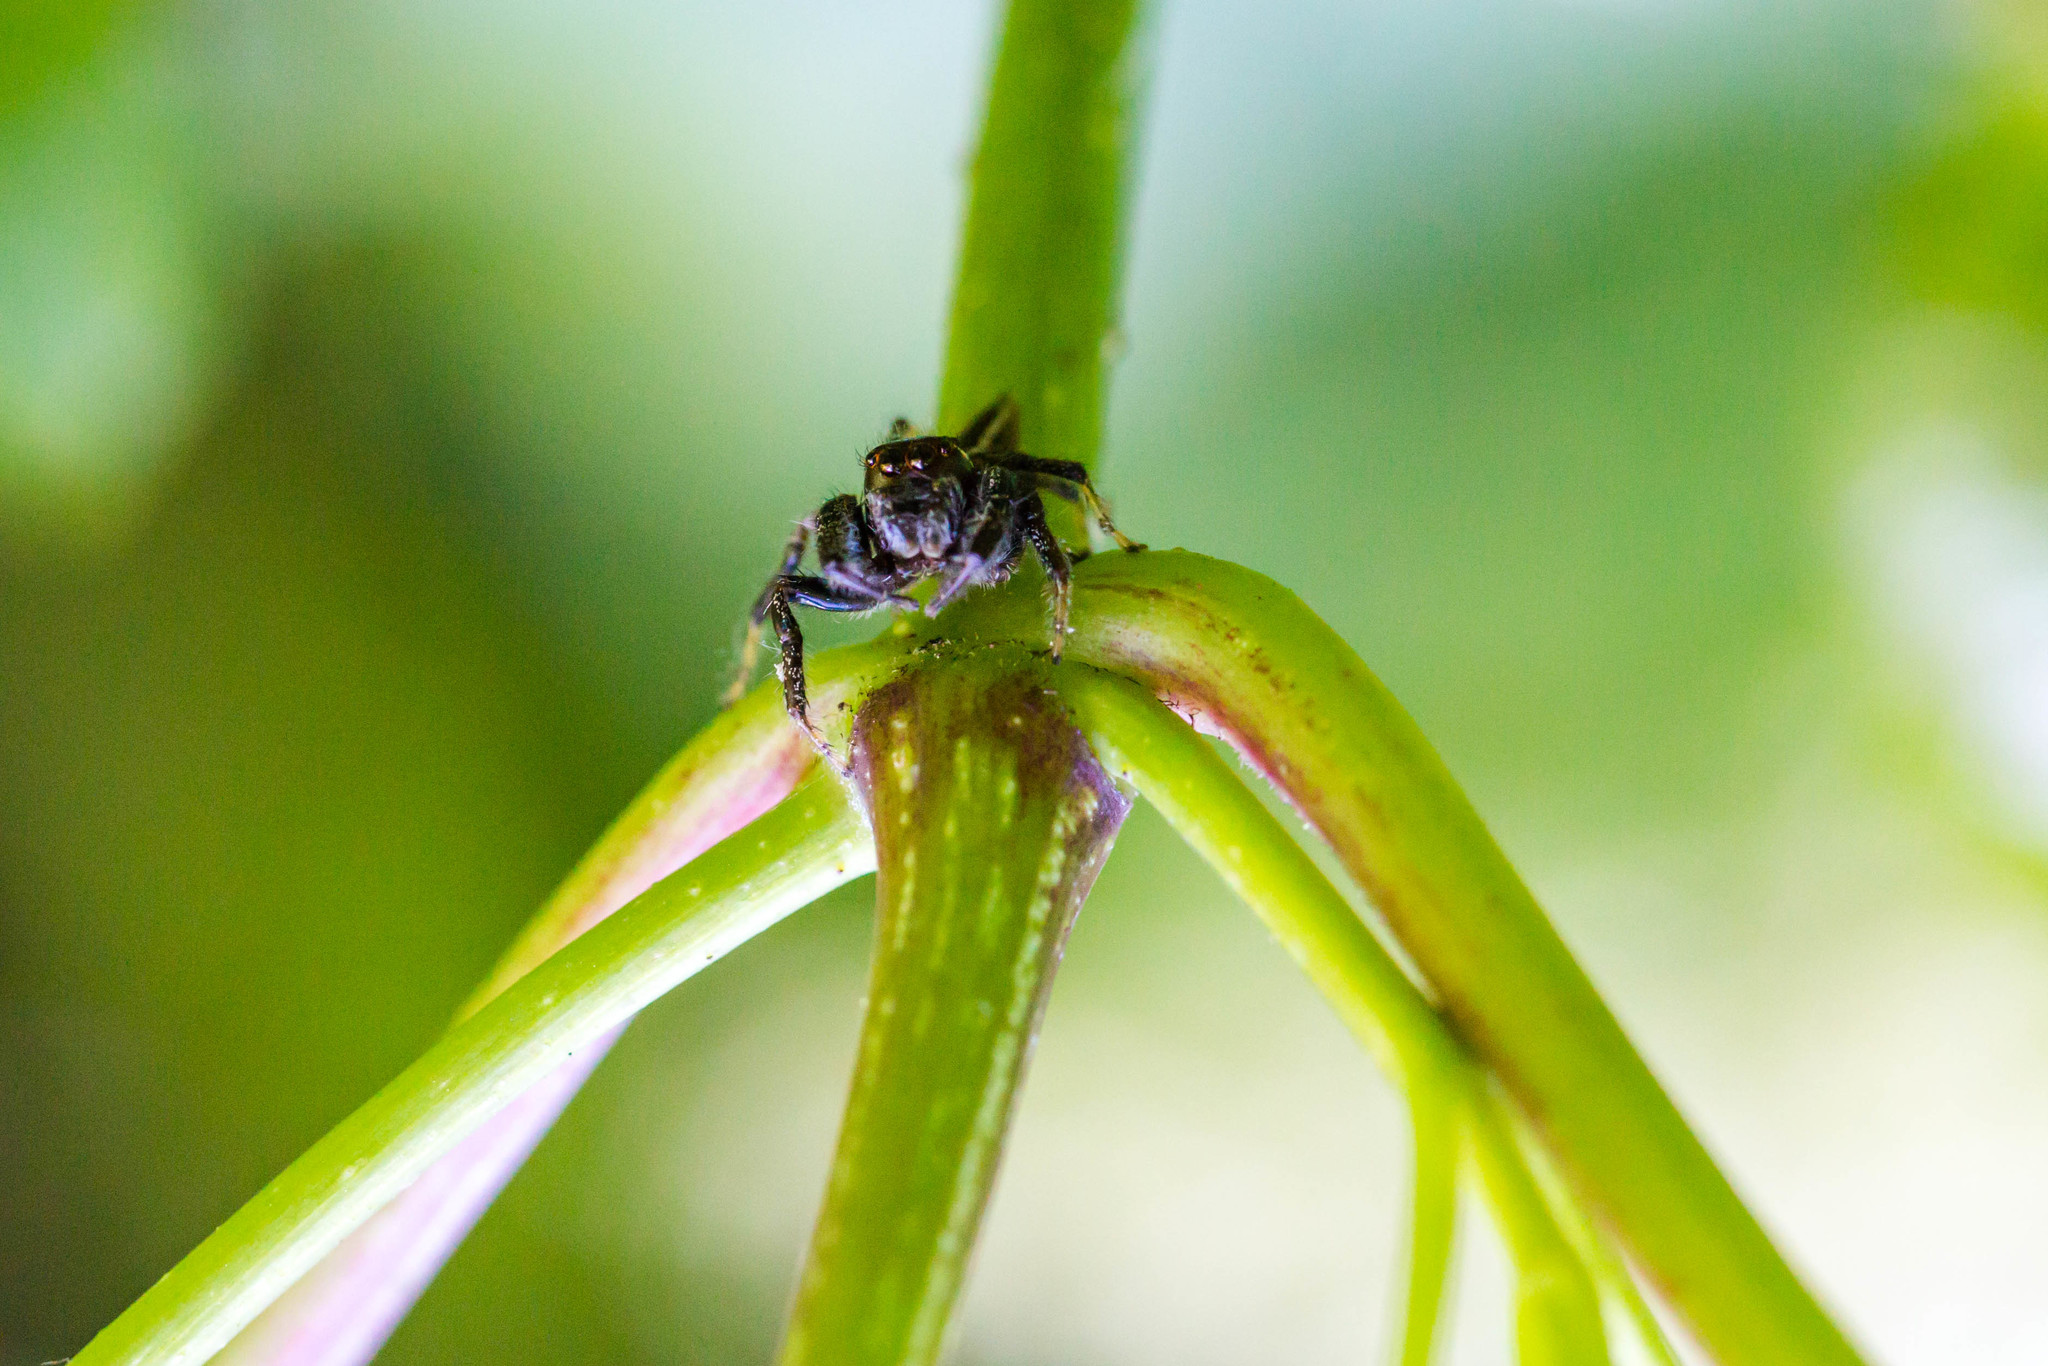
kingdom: Animalia
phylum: Arthropoda
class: Arachnida
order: Araneae
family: Salticidae
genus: Colonus
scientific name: Colonus sylvanus
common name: Jumping spiders
